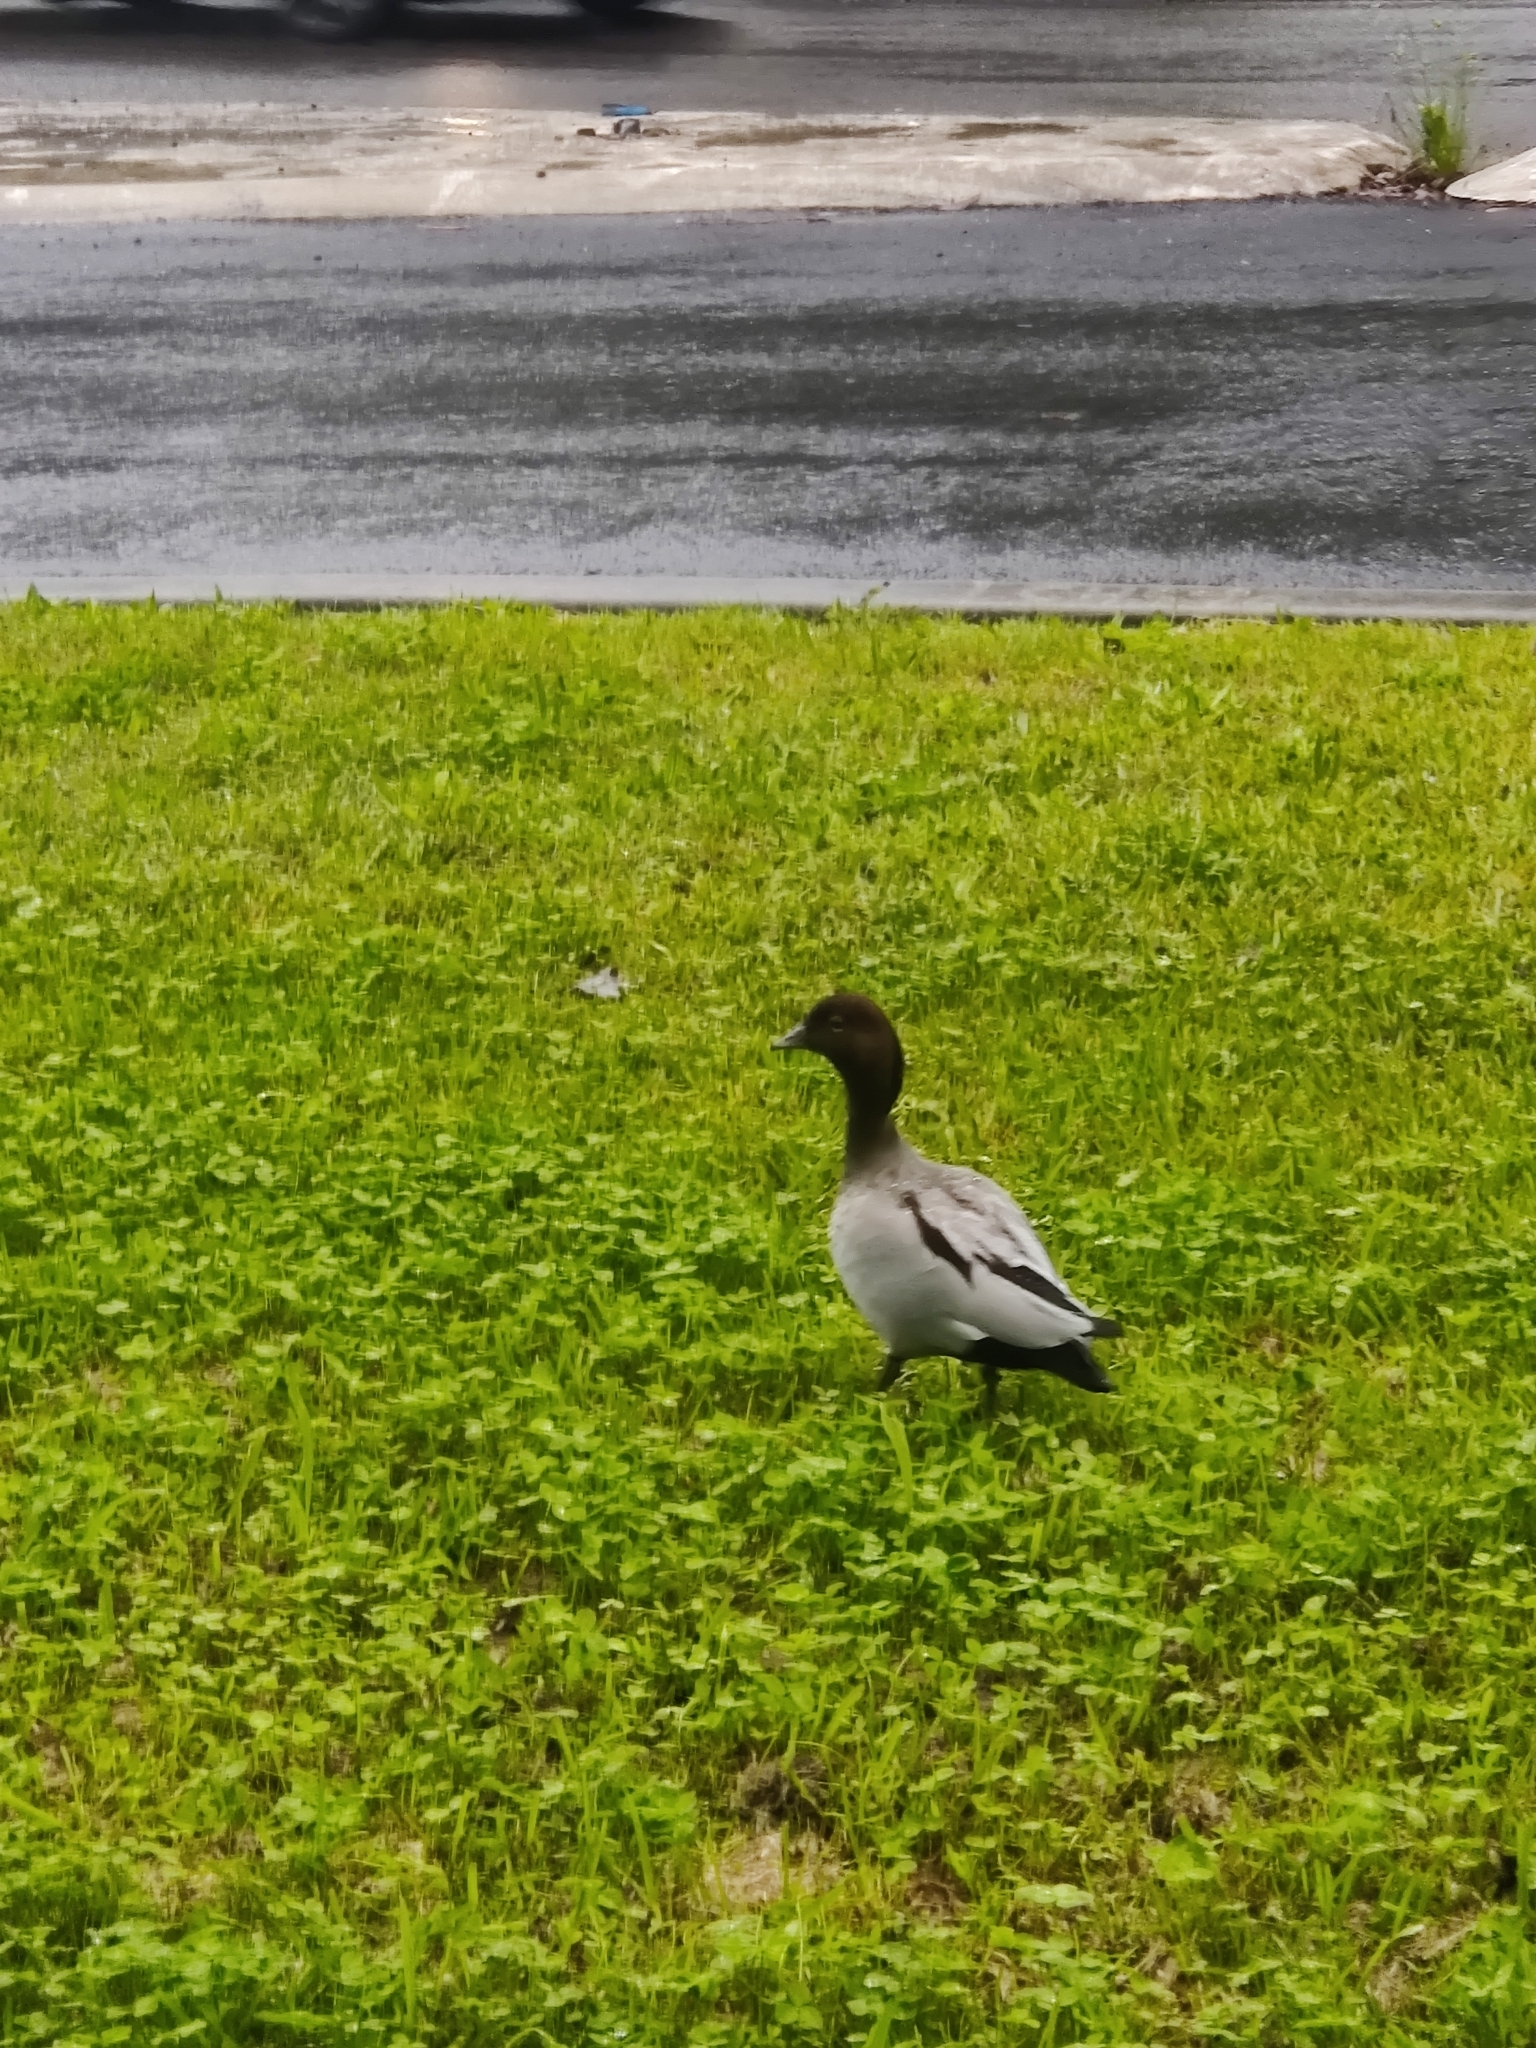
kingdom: Animalia
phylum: Chordata
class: Aves
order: Anseriformes
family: Anatidae
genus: Chenonetta
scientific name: Chenonetta jubata
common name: Maned duck
